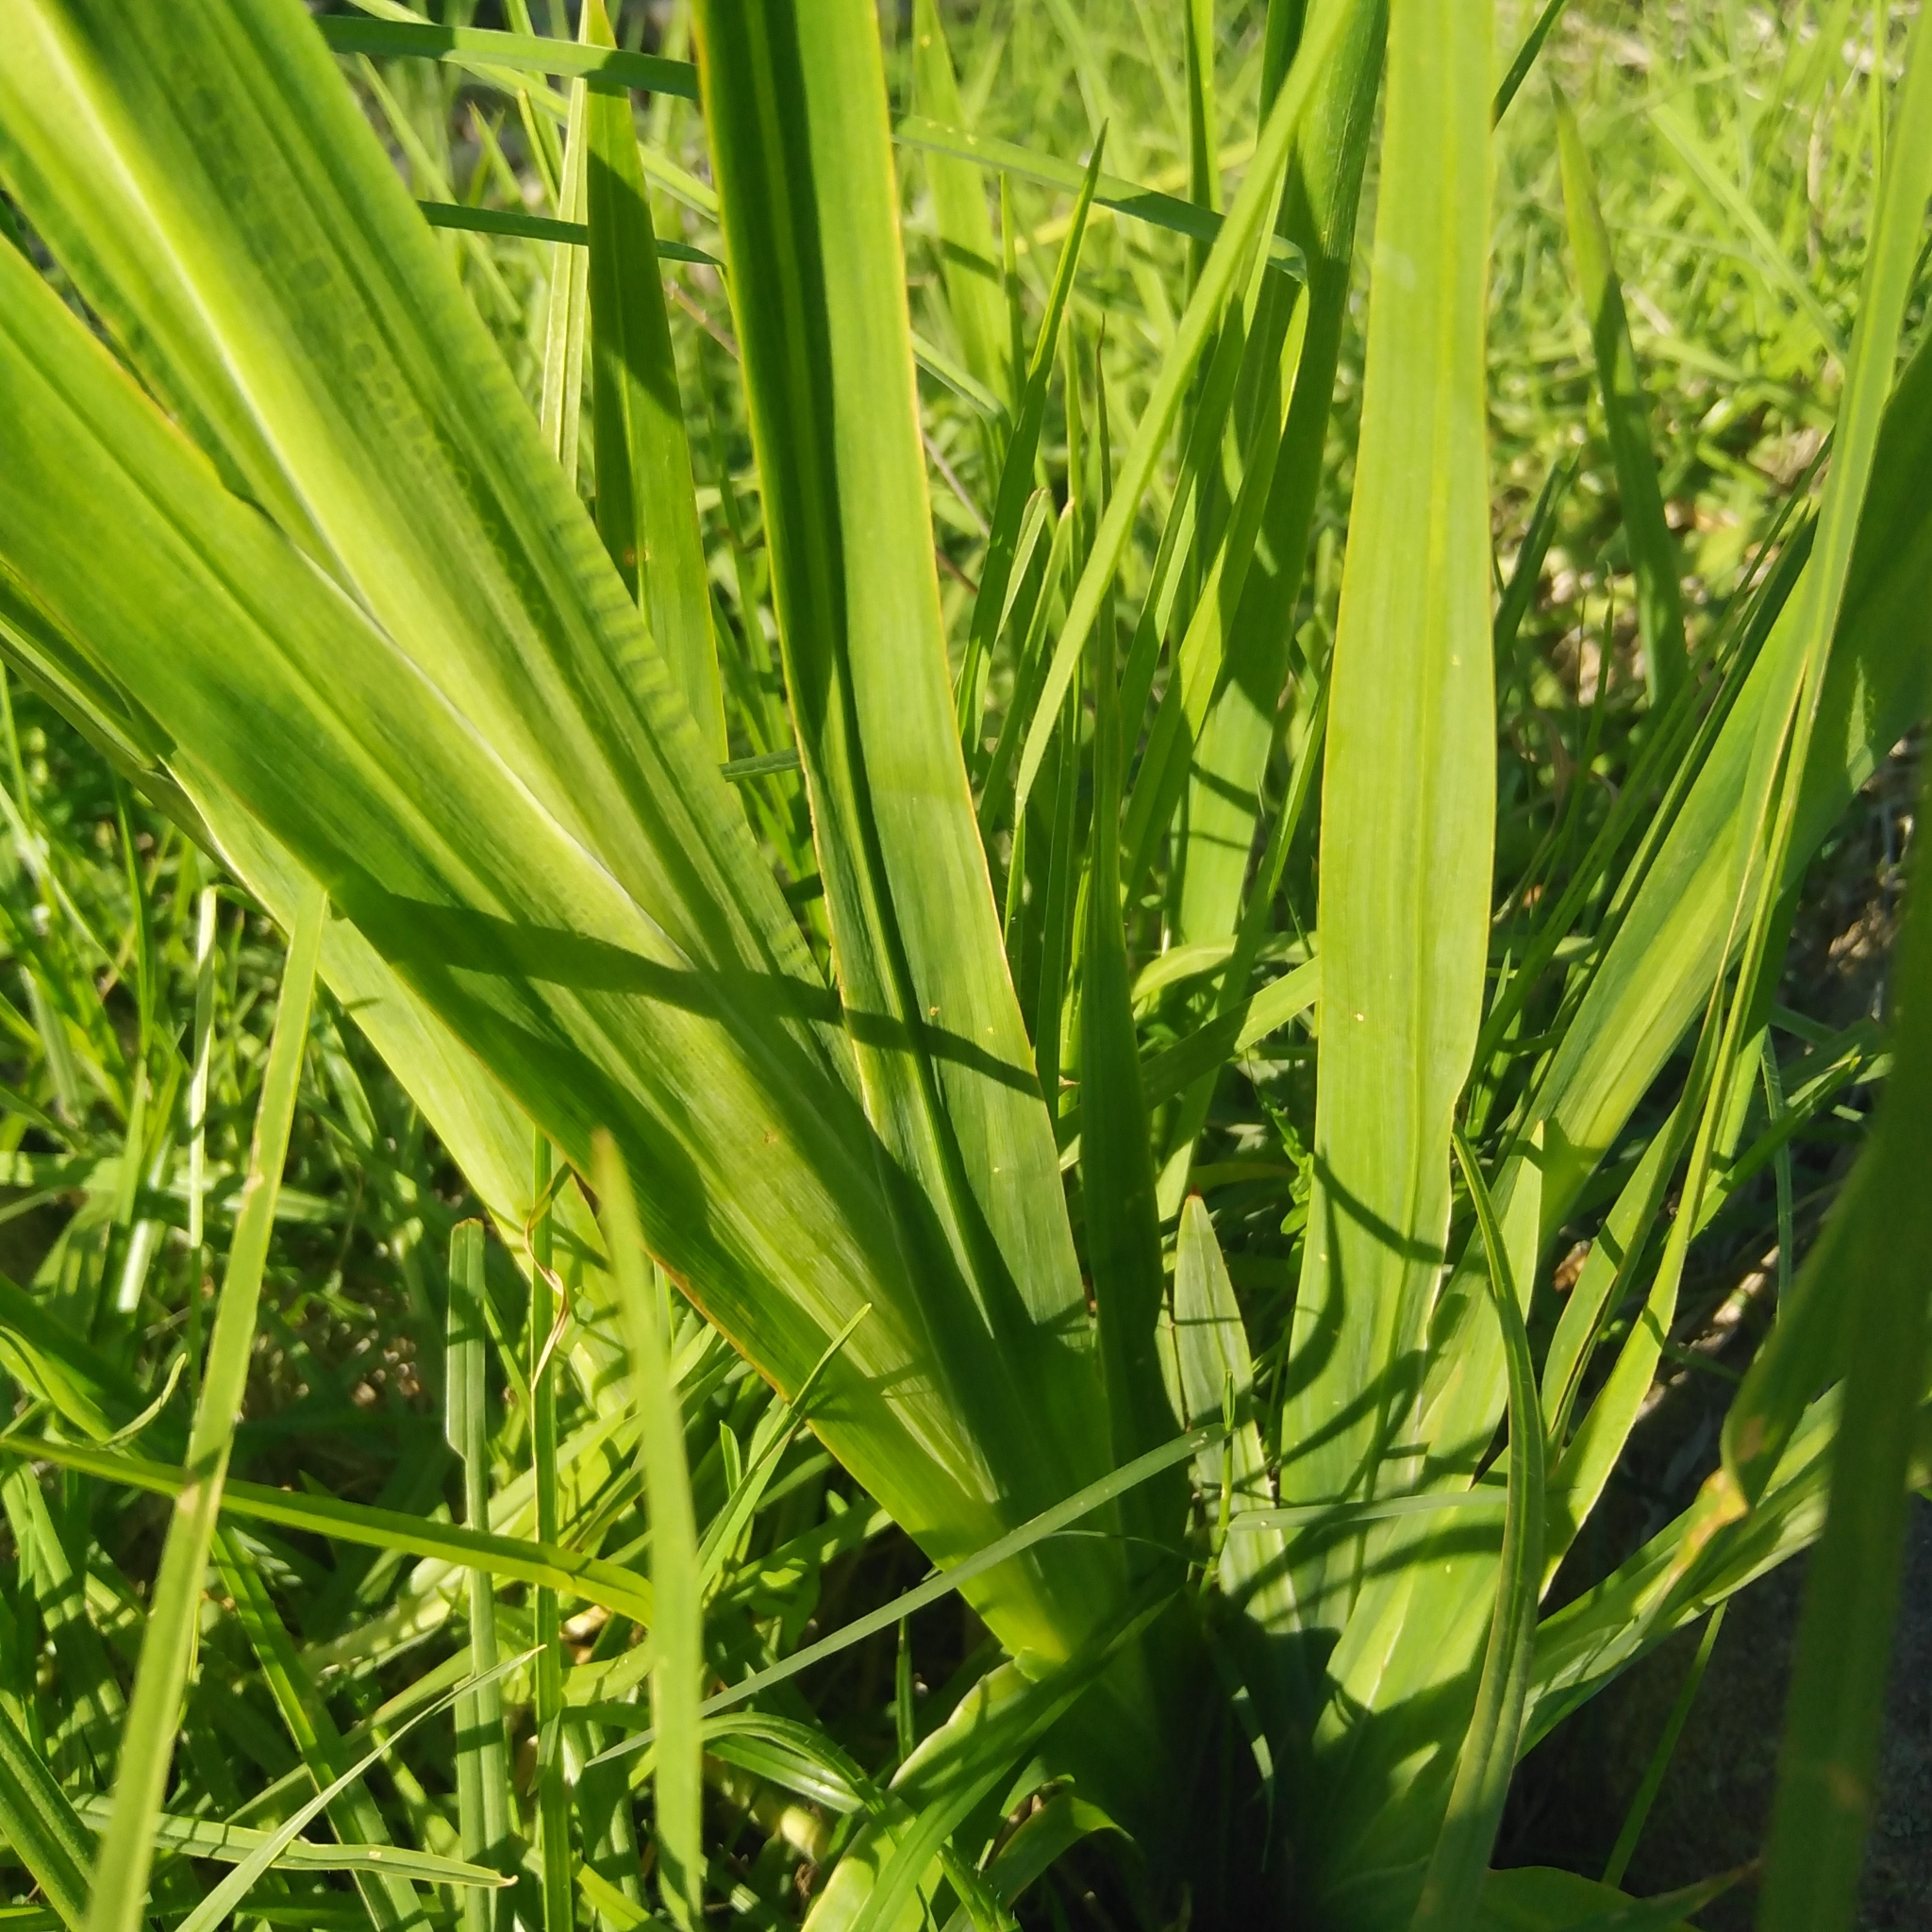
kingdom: Plantae
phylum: Tracheophyta
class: Liliopsida
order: Asparagales
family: Iridaceae
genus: Chasmanthe
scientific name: Chasmanthe aethiopica
